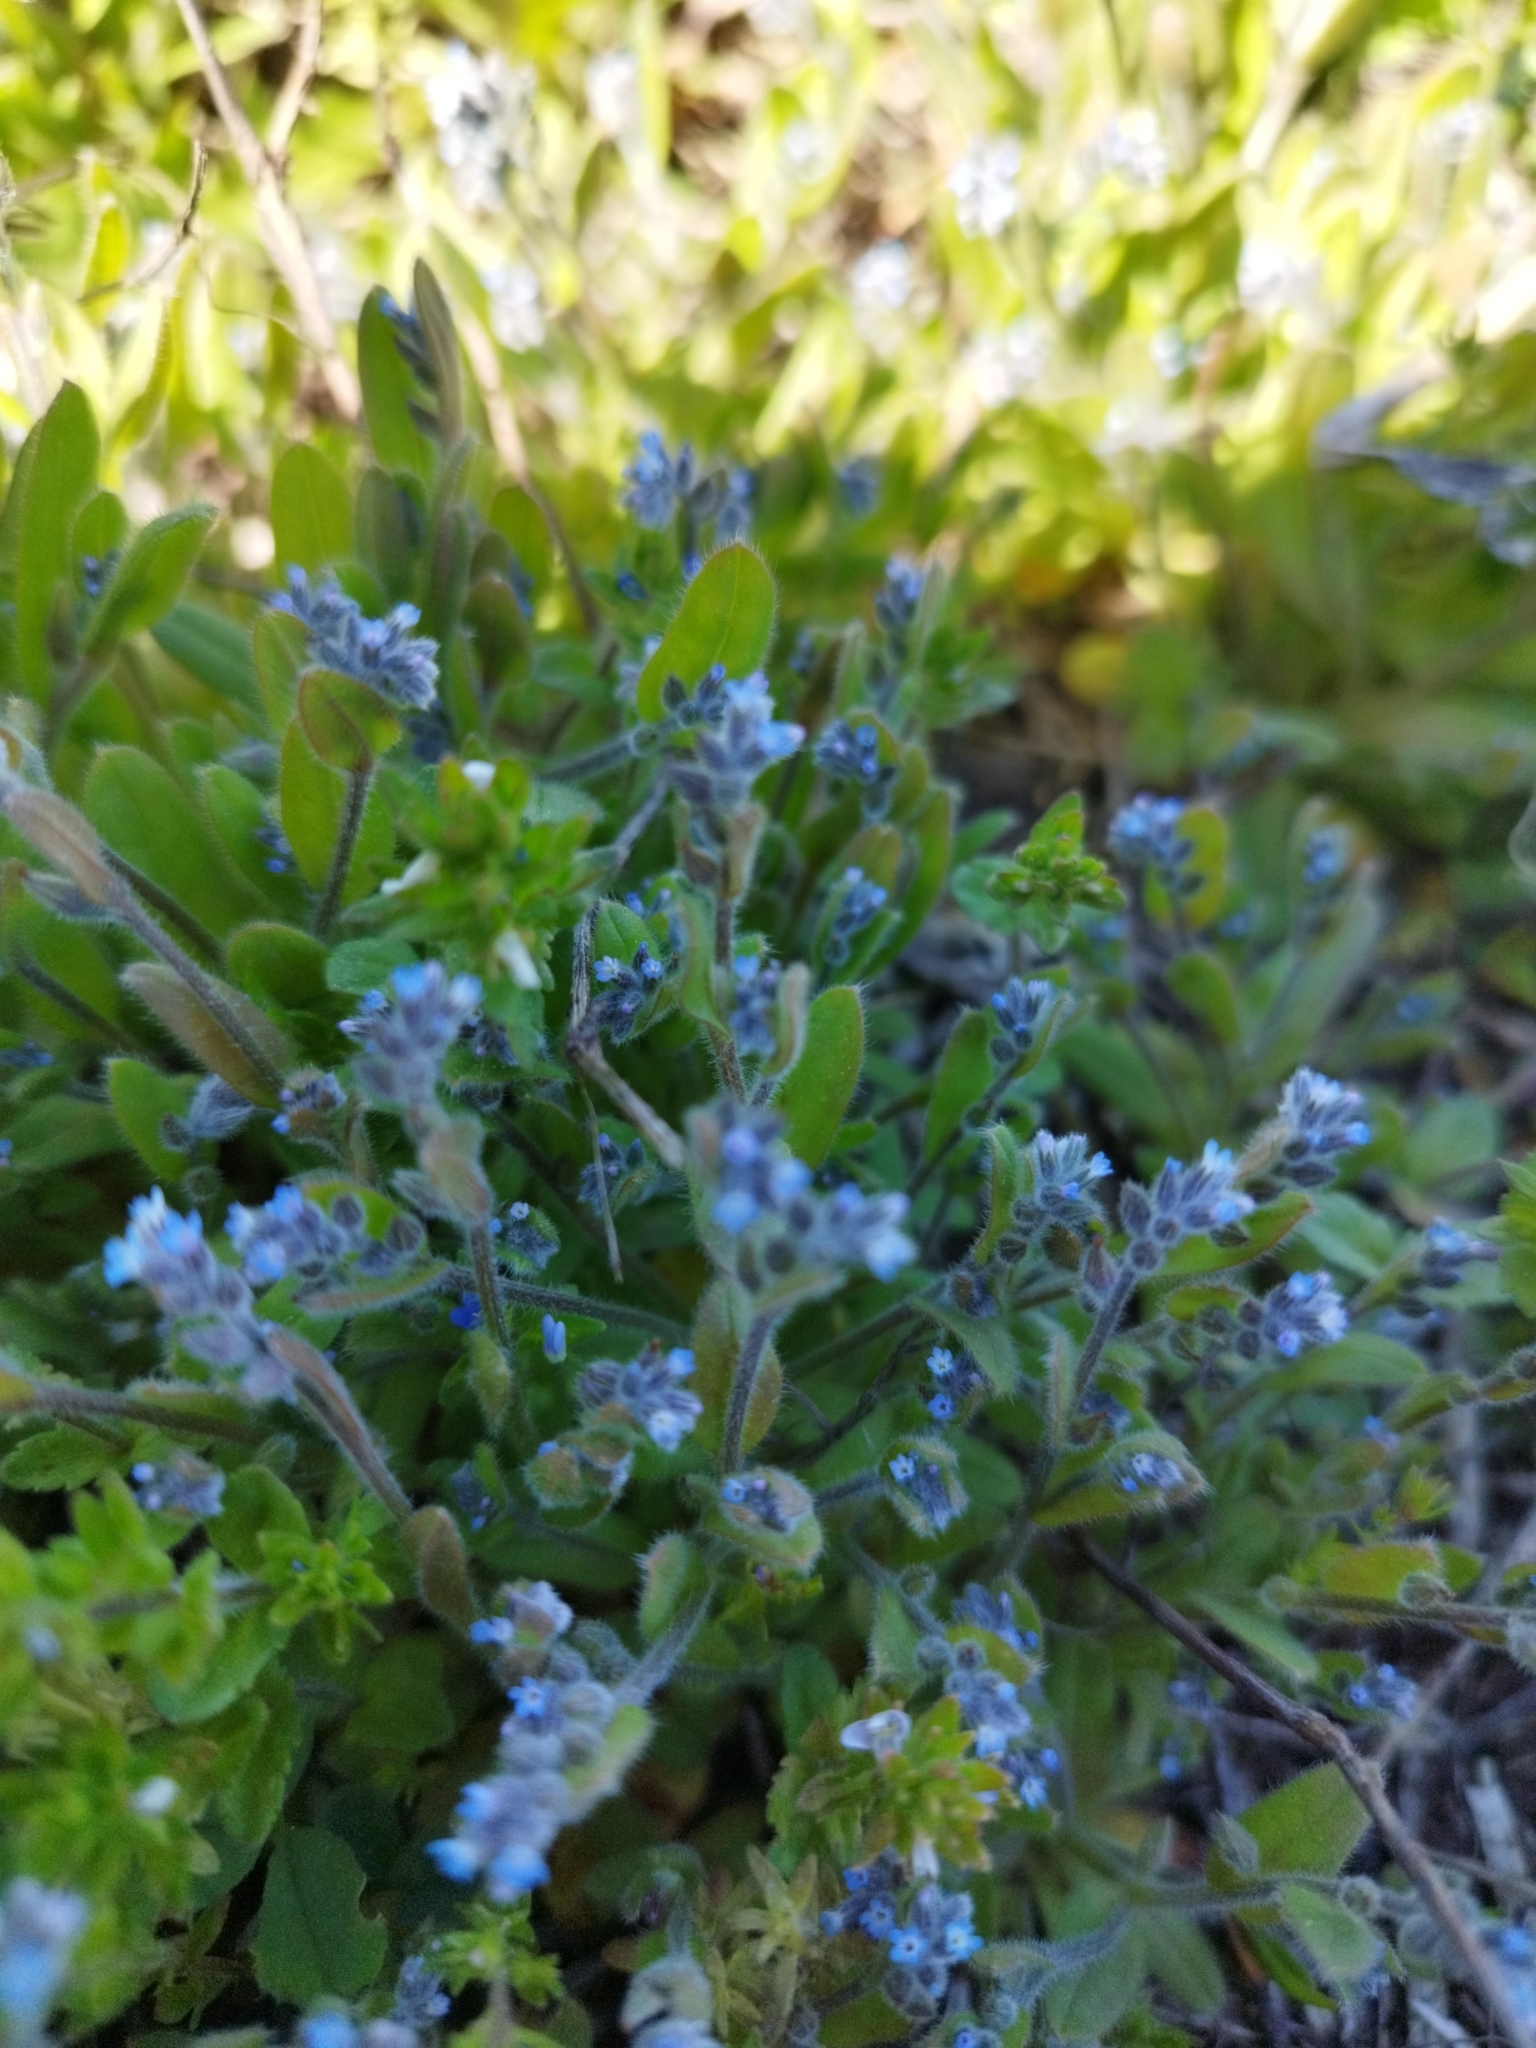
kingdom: Plantae
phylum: Tracheophyta
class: Magnoliopsida
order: Boraginales
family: Boraginaceae
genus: Myosotis
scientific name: Myosotis stricta
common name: Strict forget-me-not
